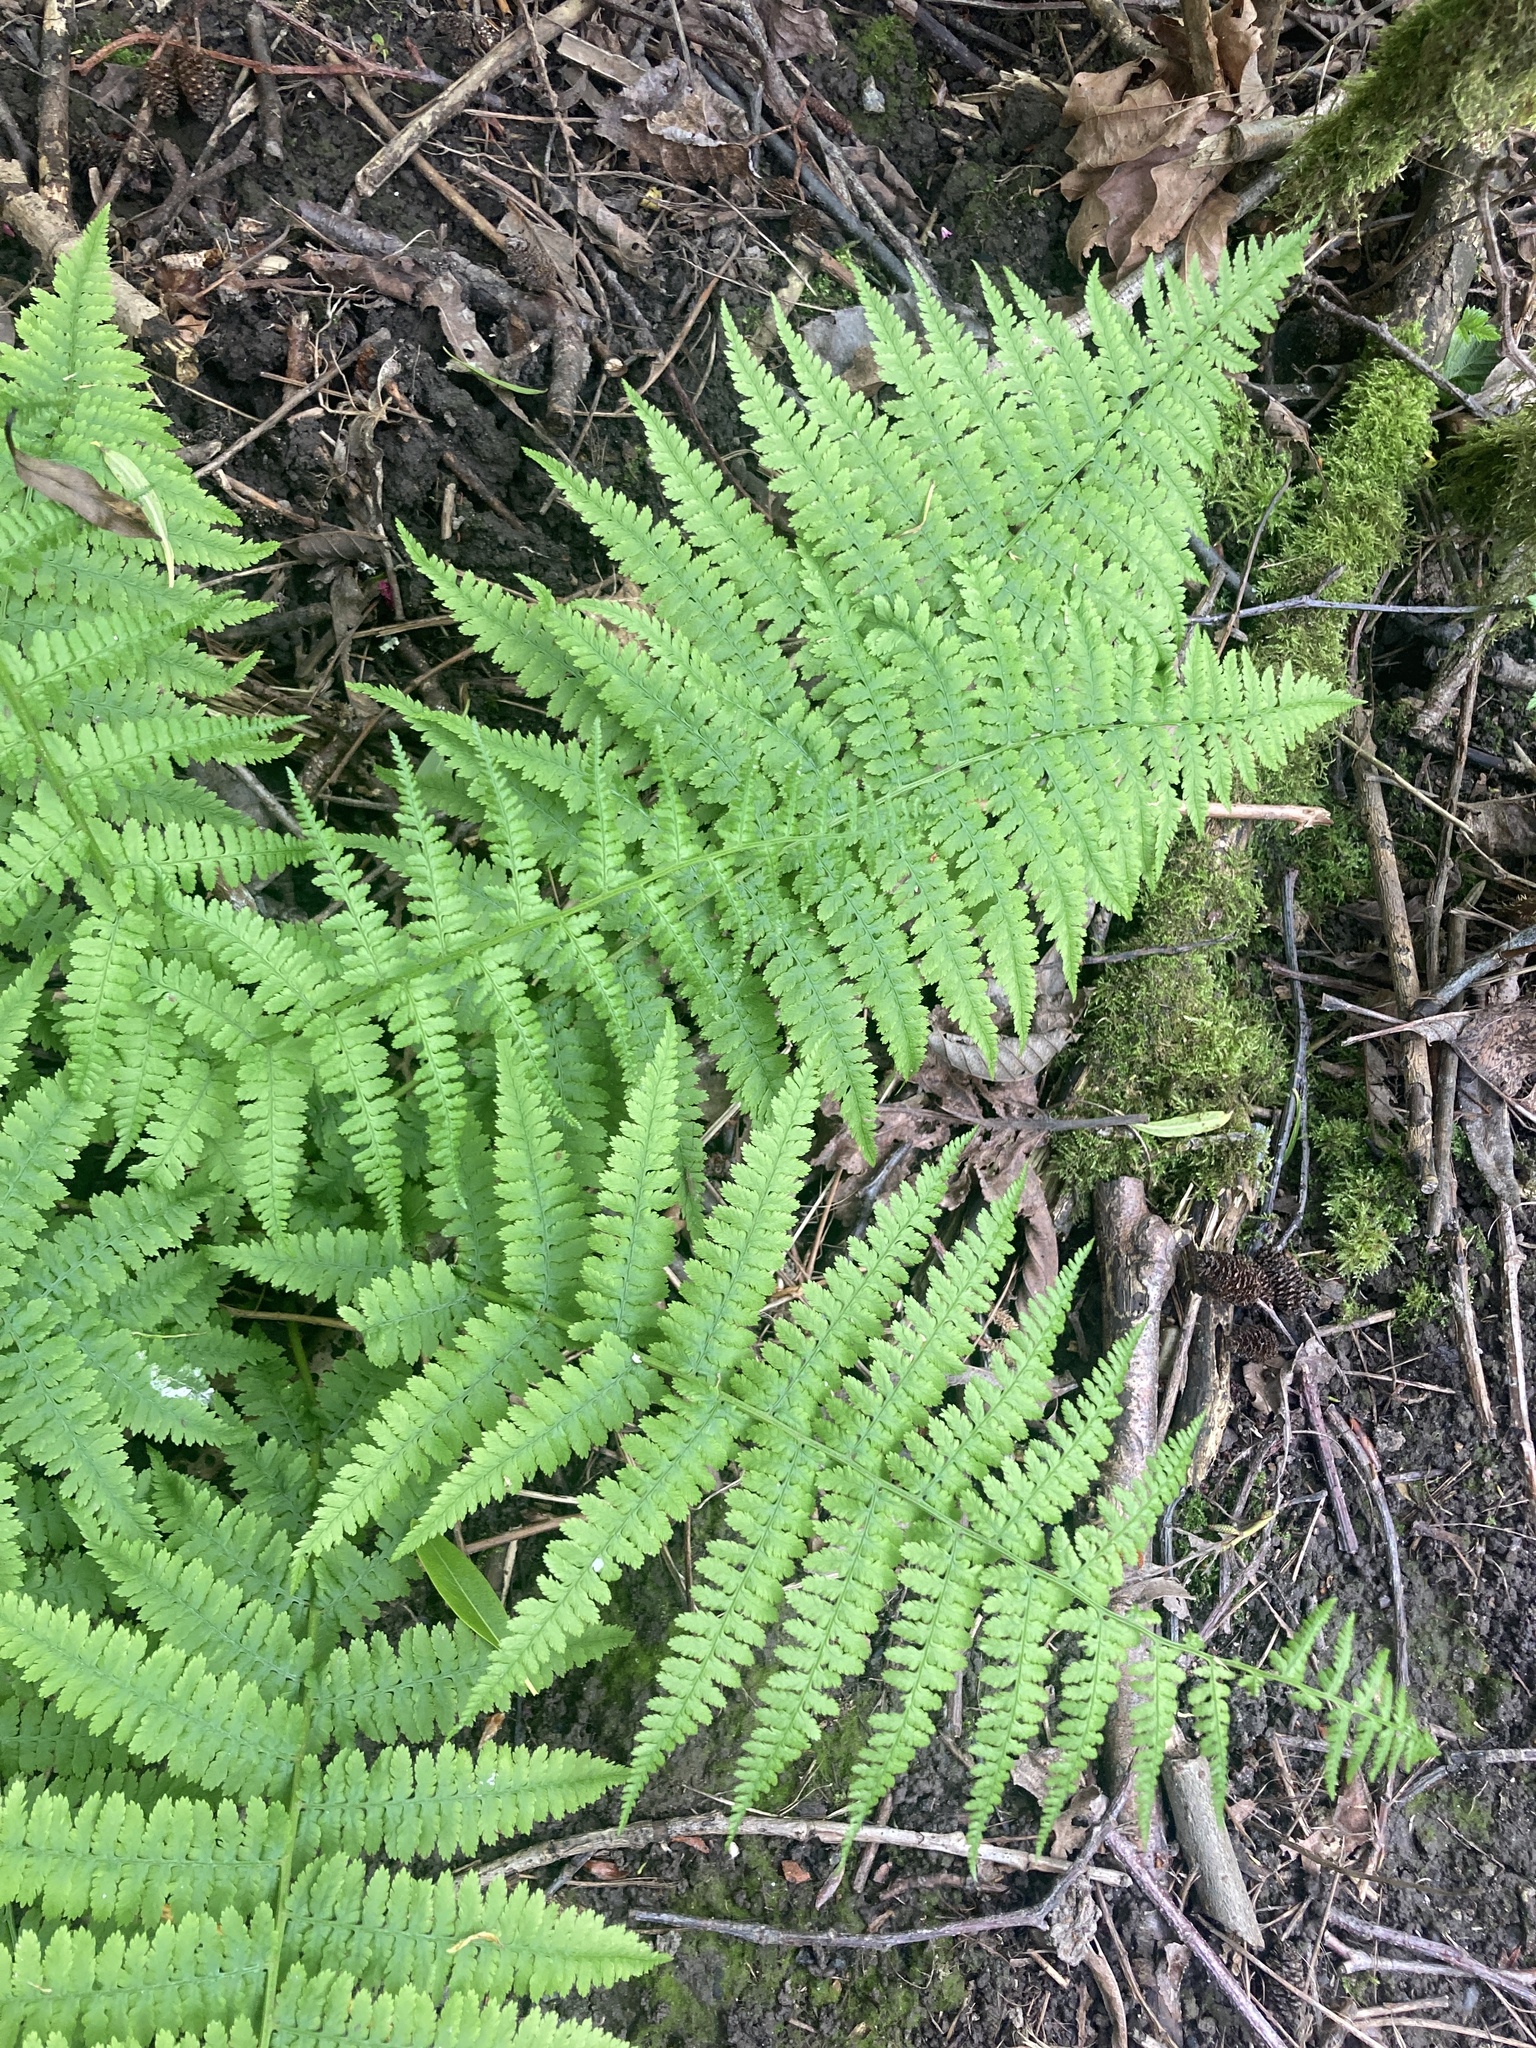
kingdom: Plantae
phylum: Tracheophyta
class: Polypodiopsida
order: Polypodiales
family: Athyriaceae
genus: Athyrium
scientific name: Athyrium filix-femina
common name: Lady fern
